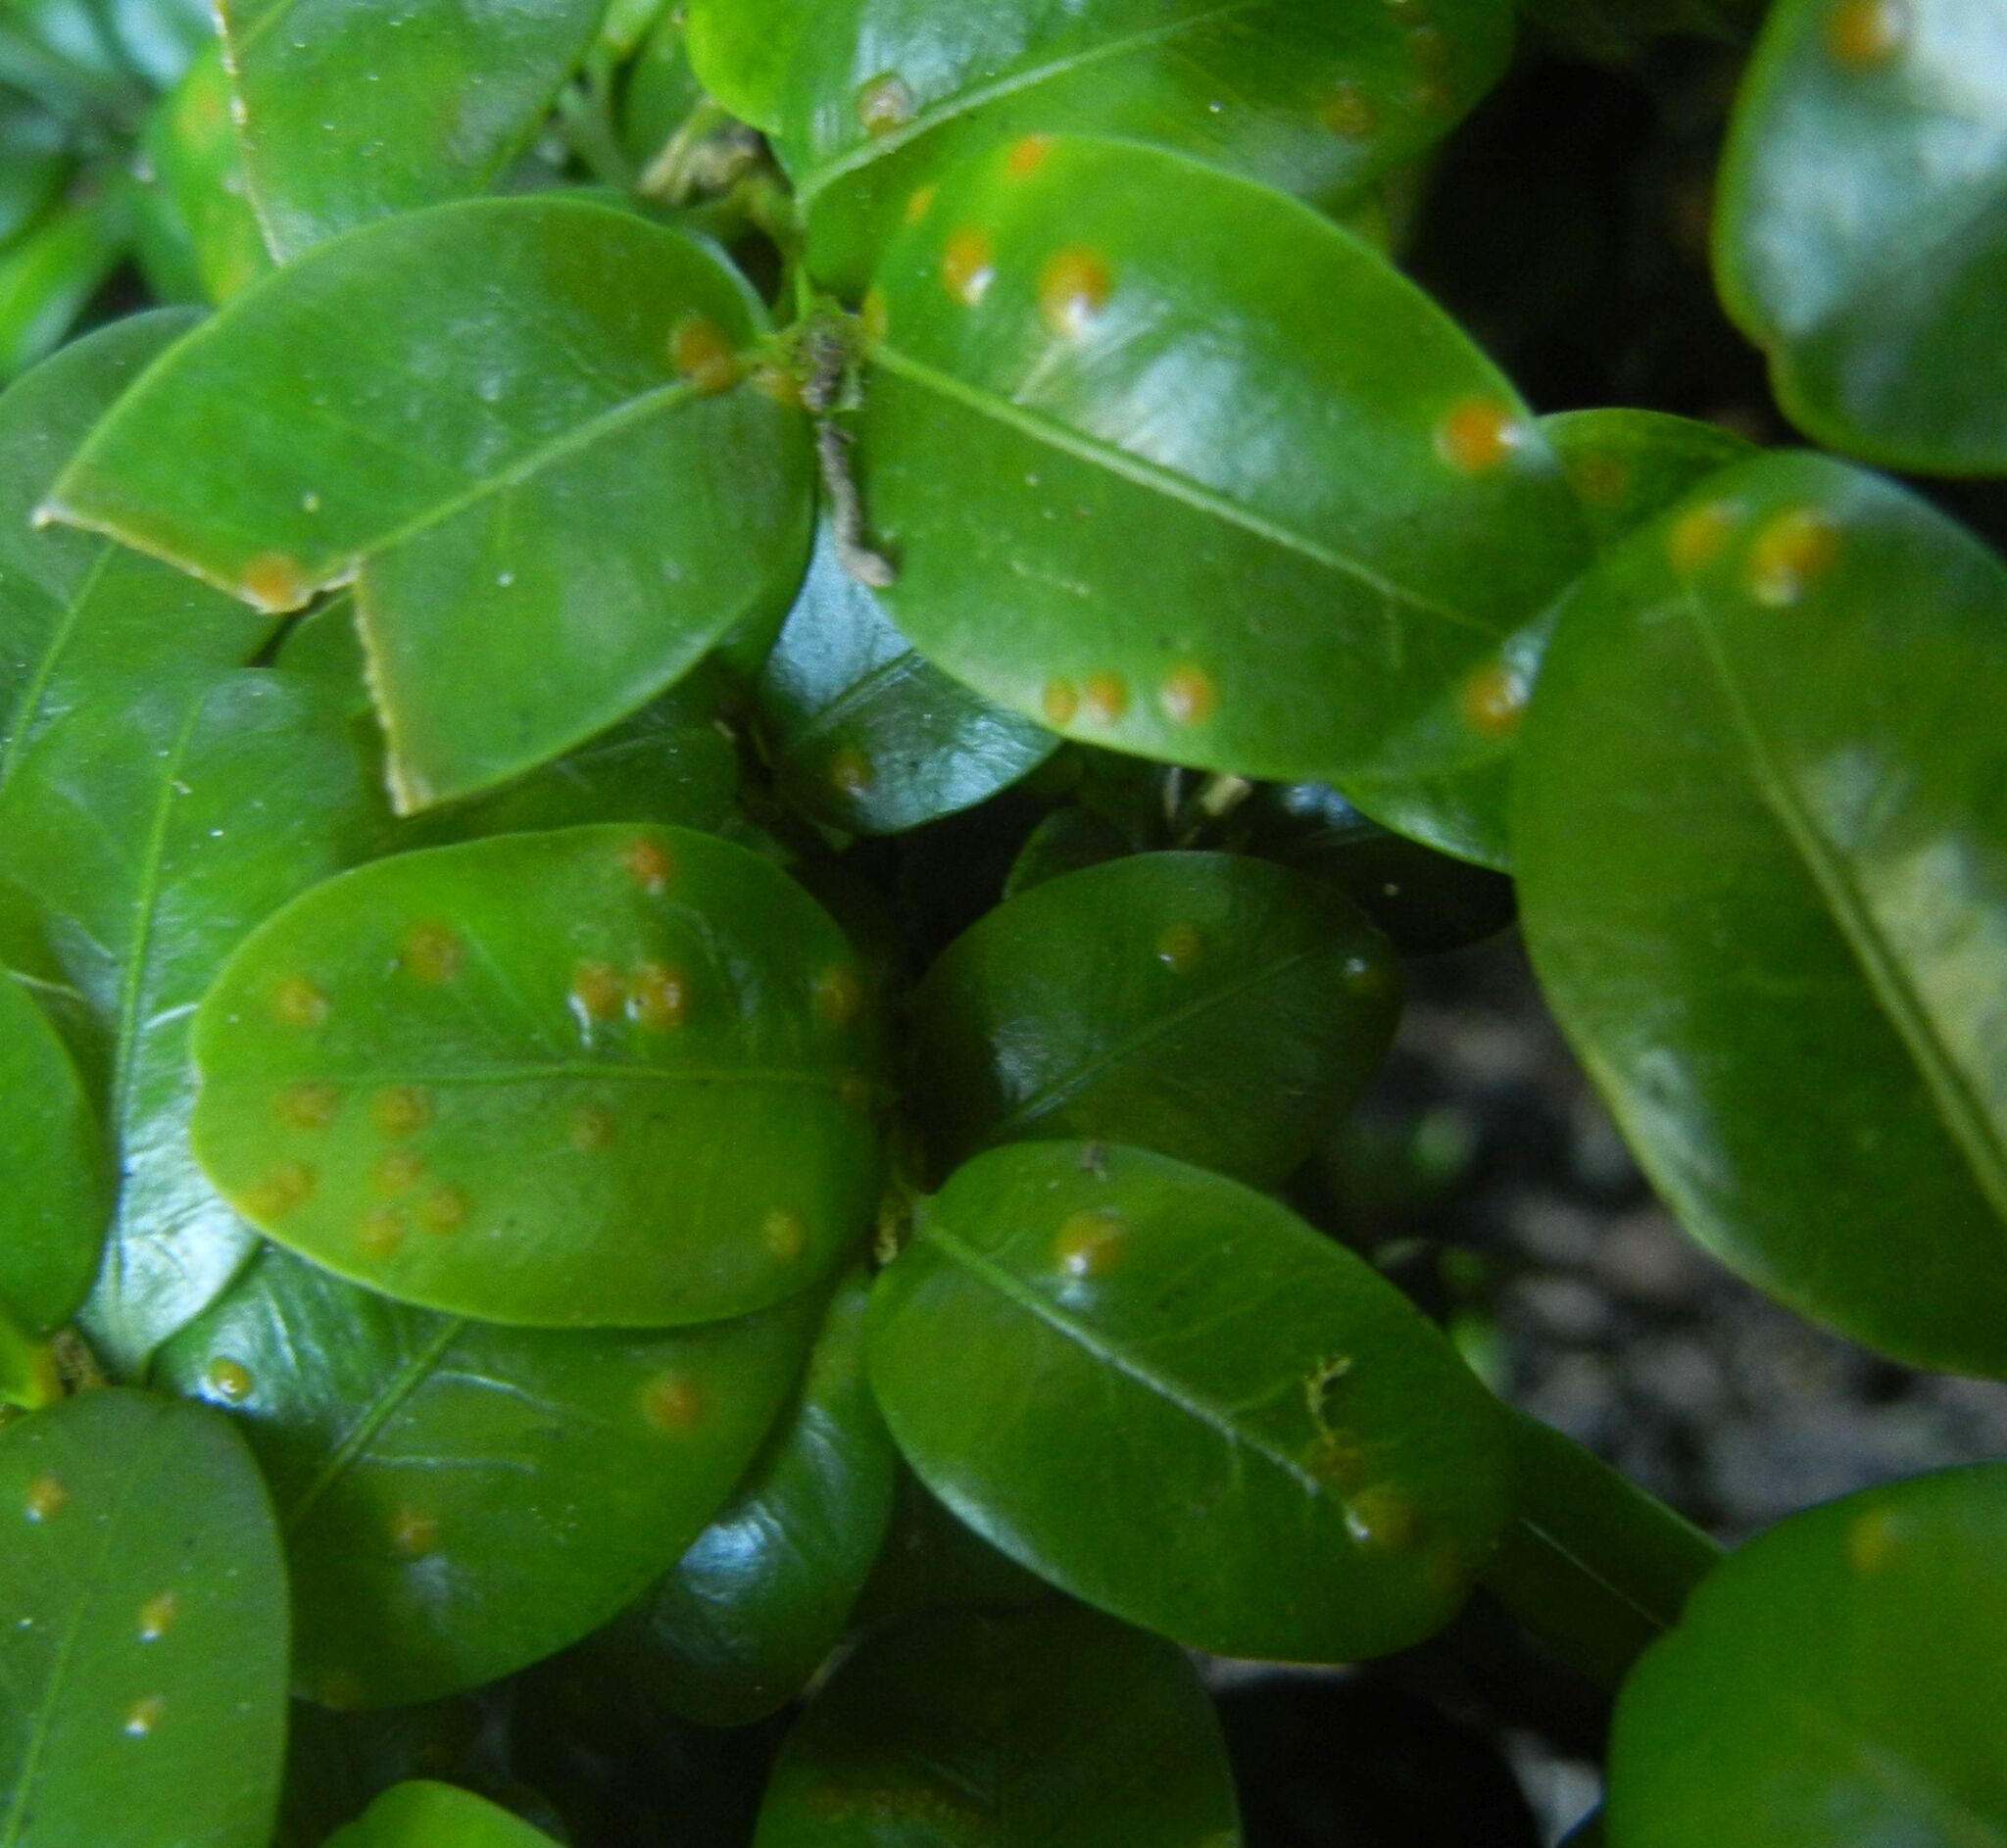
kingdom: Fungi
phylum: Basidiomycota
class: Pucciniomycetes
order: Pucciniales
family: Pucciniaceae
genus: Puccinia
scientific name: Puccinia buxi
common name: Box rust
